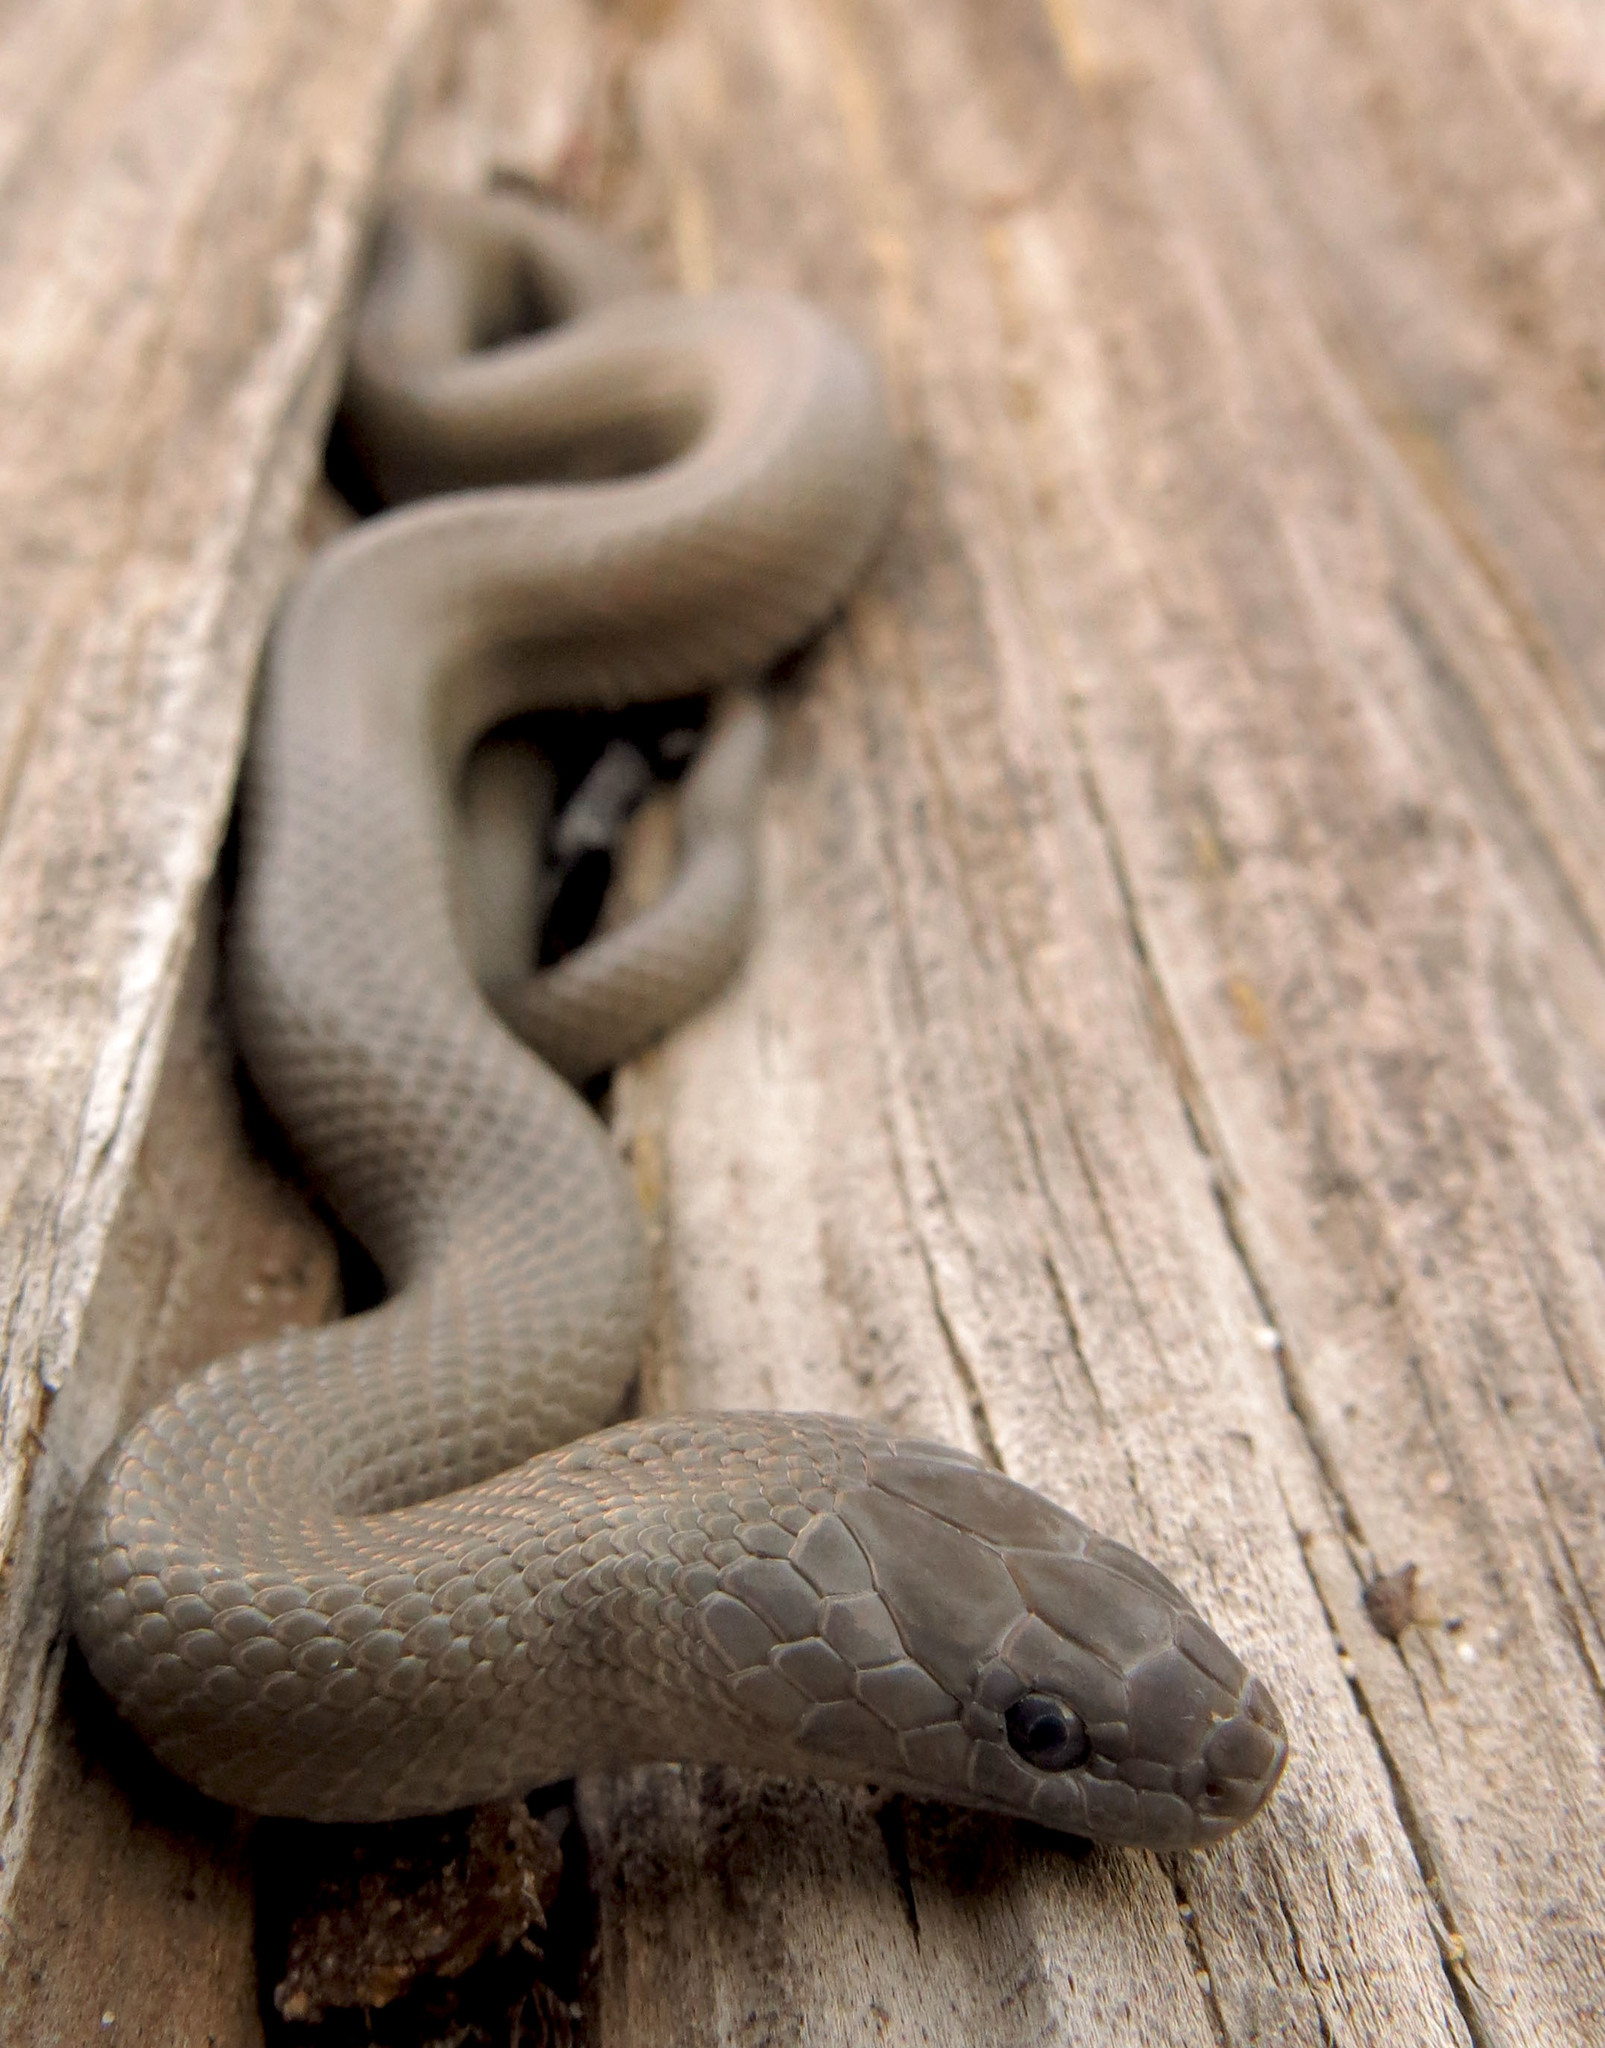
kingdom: Animalia
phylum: Chordata
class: Squamata
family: Lamprophiidae
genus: Lycodonomorphus
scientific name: Lycodonomorphus inornatus
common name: Black house snake
